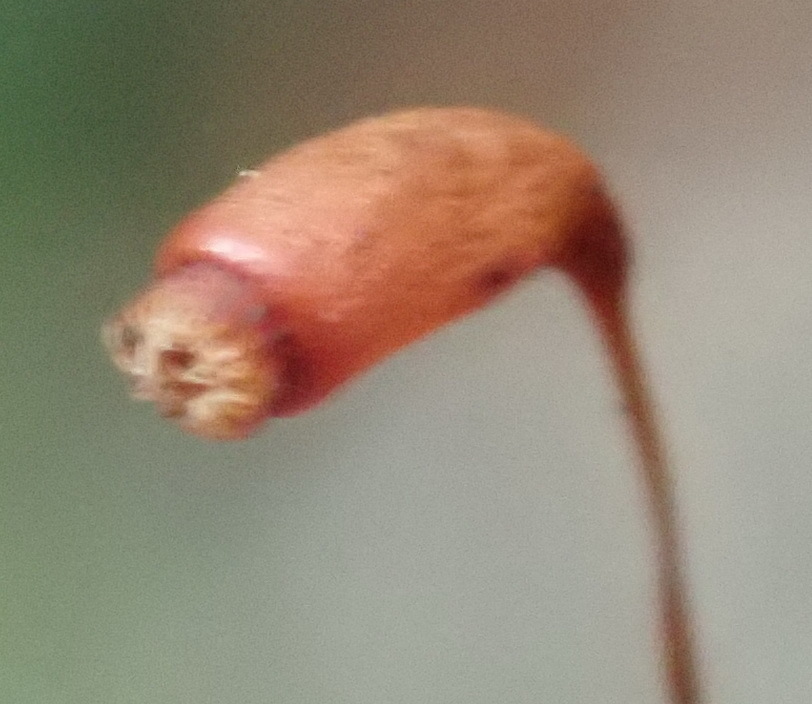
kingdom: Plantae
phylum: Bryophyta
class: Bryopsida
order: Rhizogoniales
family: Calomniaceae
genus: Pyrrhobryum
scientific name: Pyrrhobryum spiniforme
